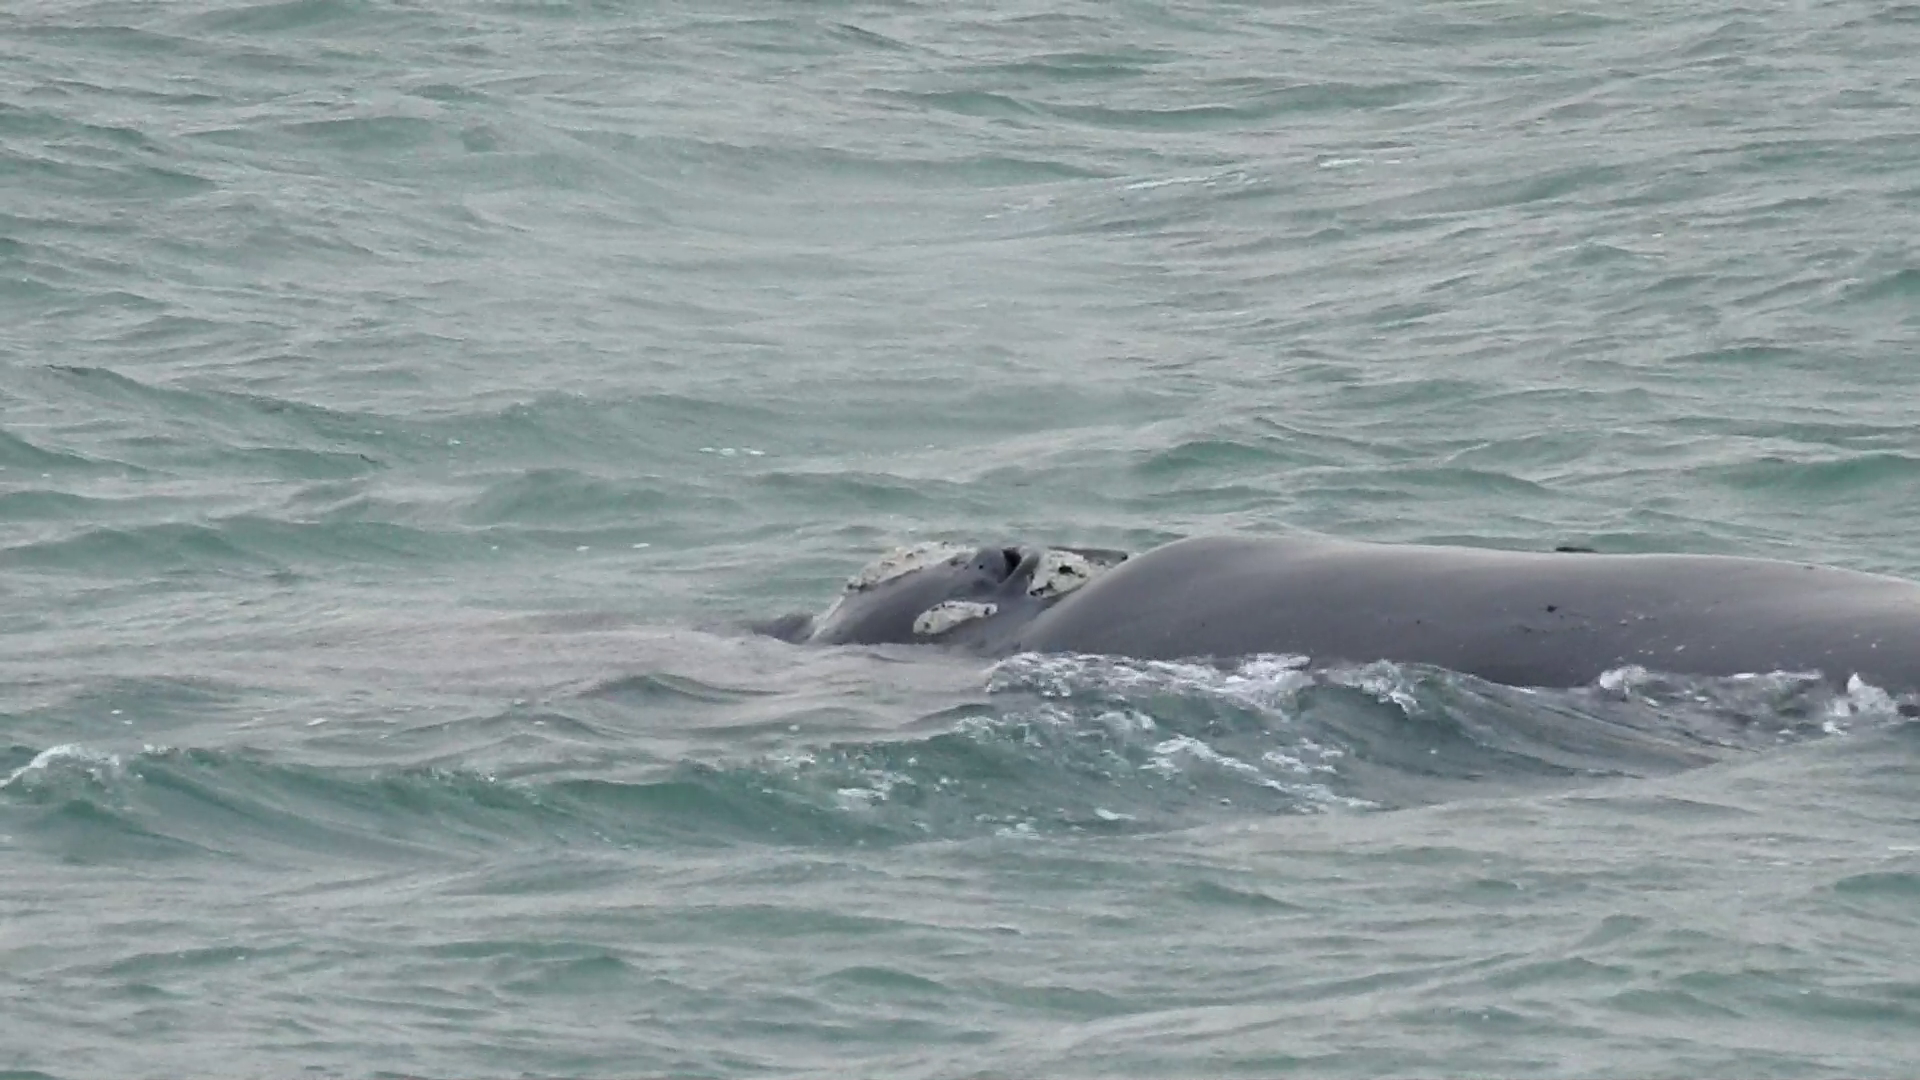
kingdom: Animalia
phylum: Chordata
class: Mammalia
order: Cetacea
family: Balaenidae
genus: Eubalaena
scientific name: Eubalaena australis
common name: Southern right whale
